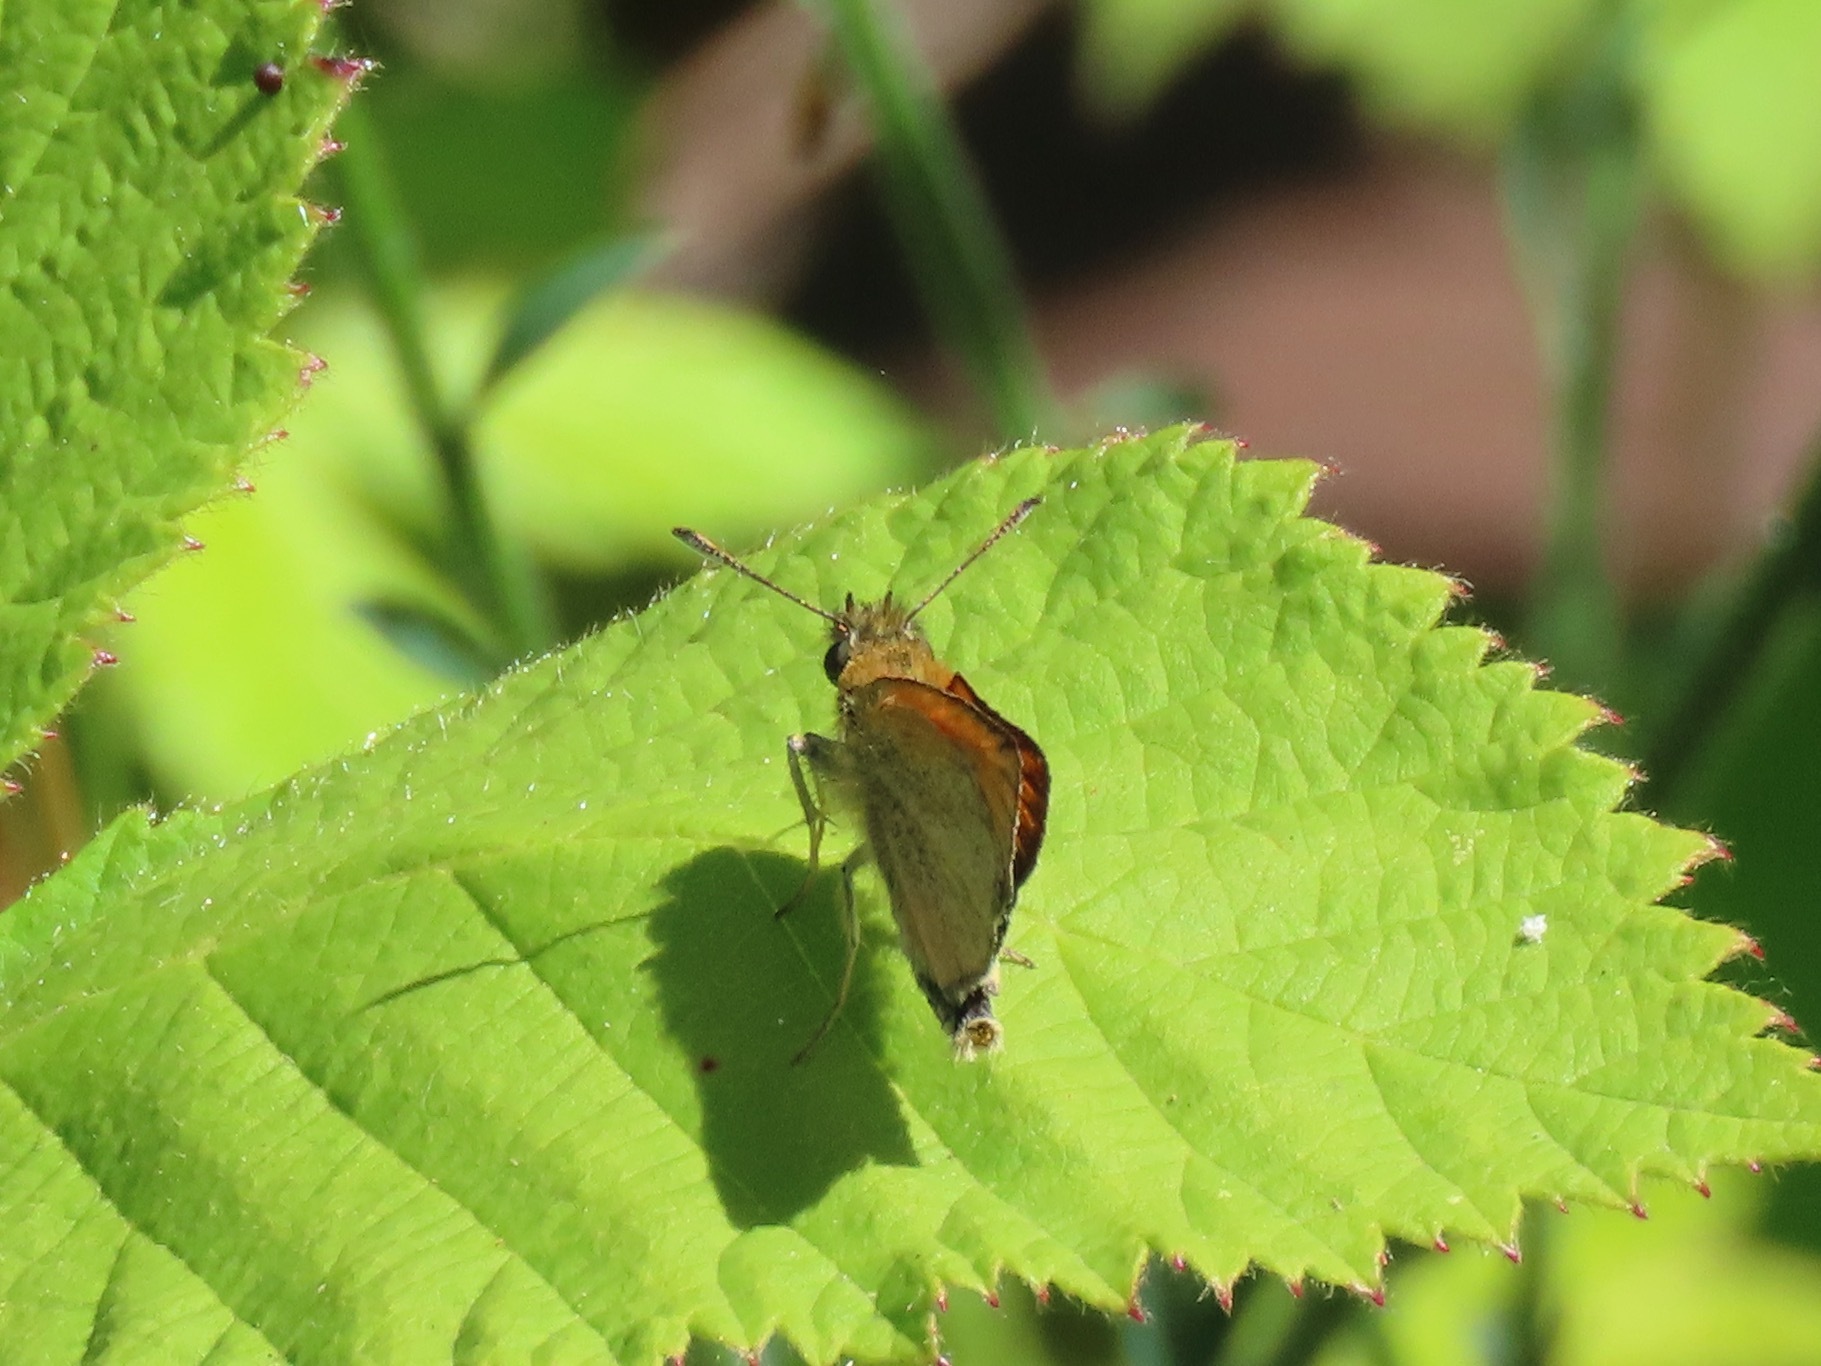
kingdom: Animalia
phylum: Arthropoda
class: Insecta
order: Lepidoptera
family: Hesperiidae
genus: Thymelicus
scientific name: Thymelicus lineola
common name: Essex skipper
